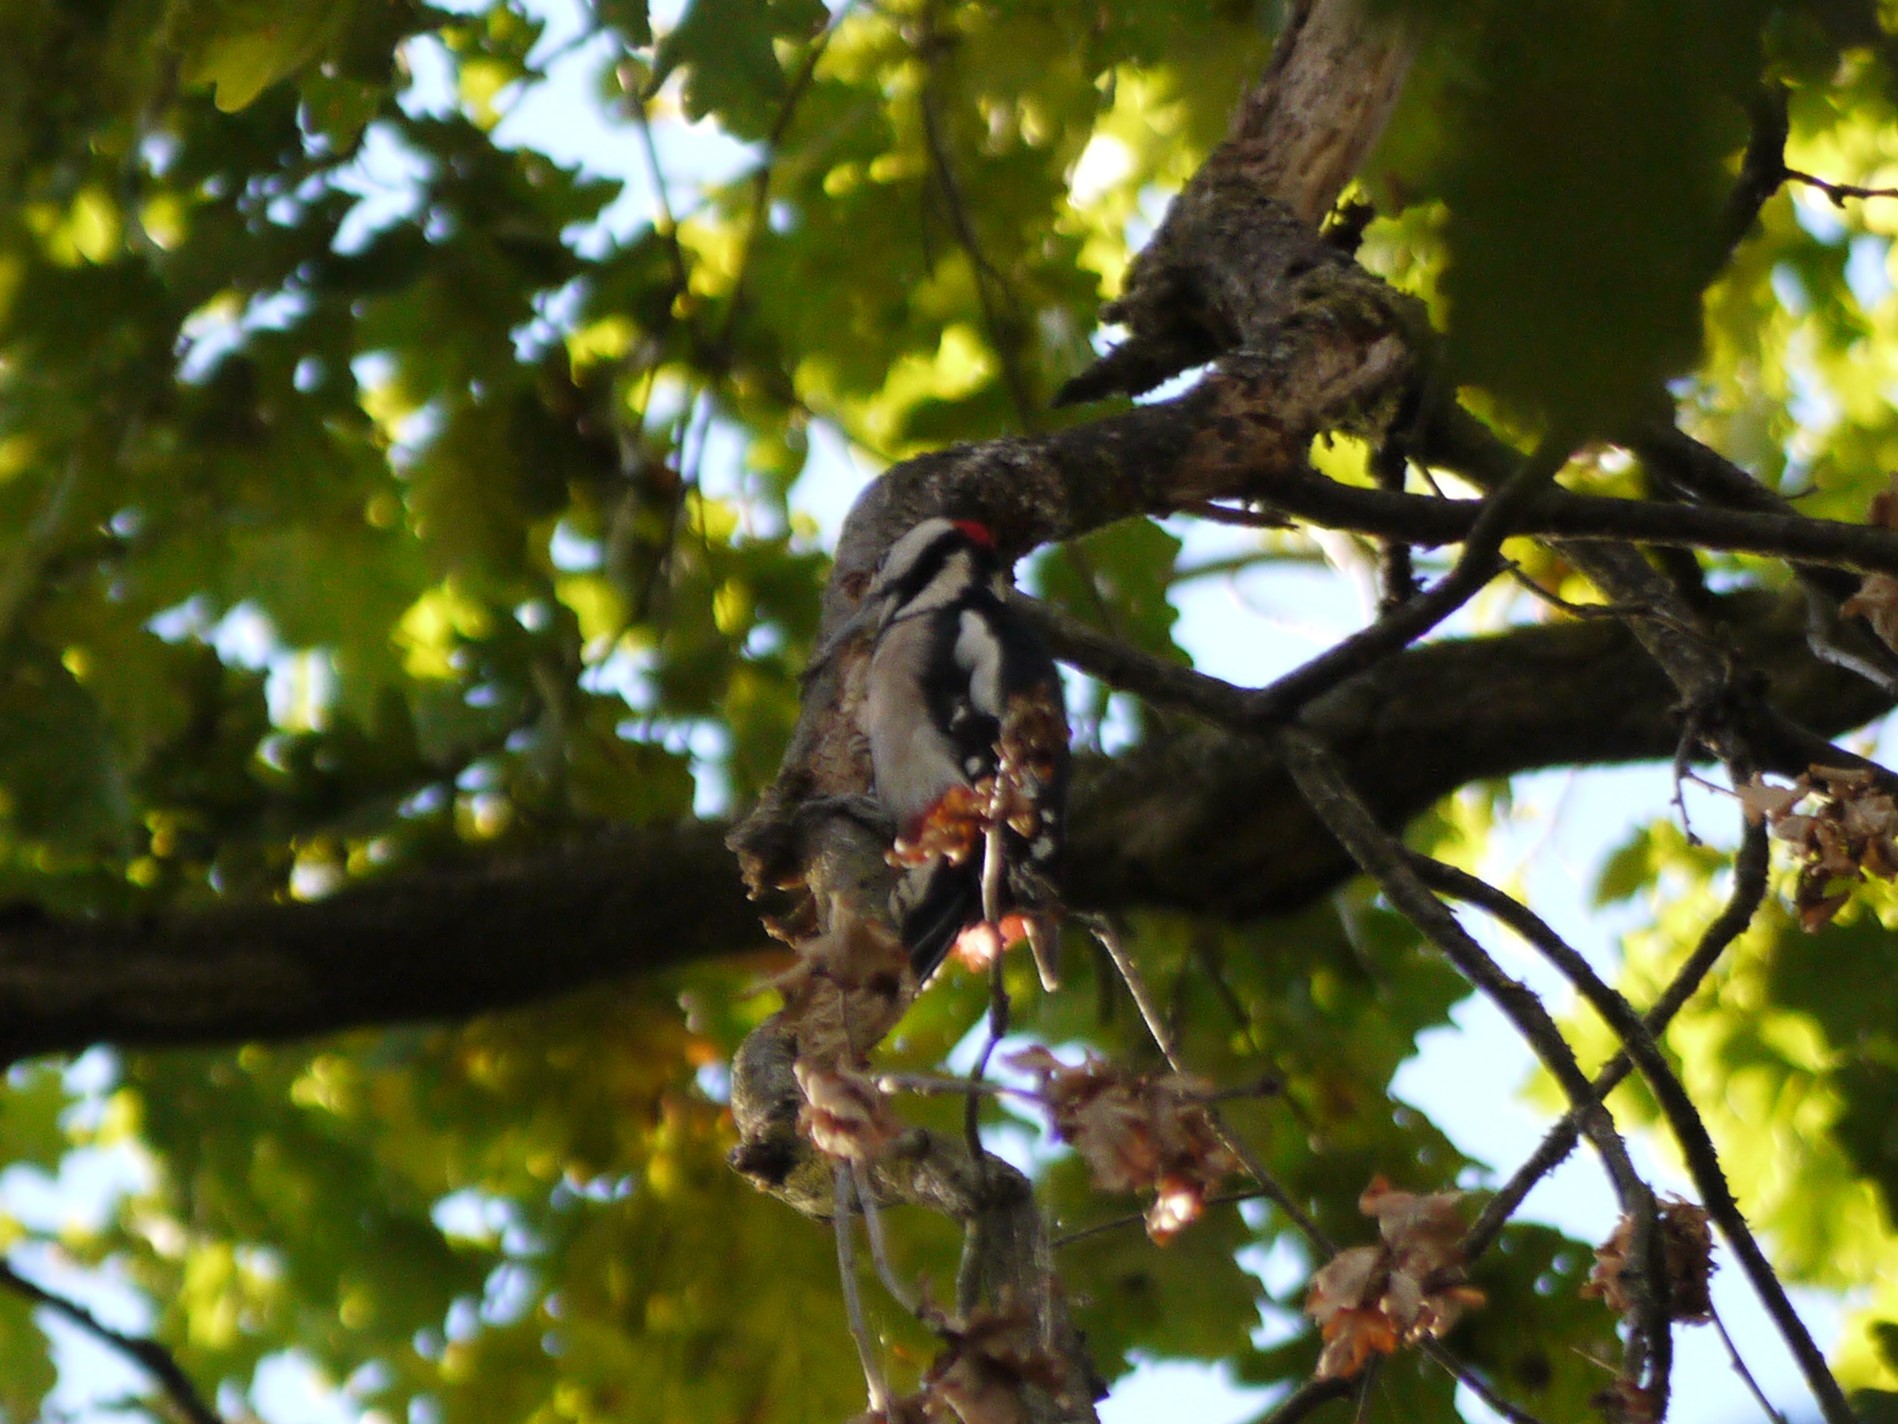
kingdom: Animalia
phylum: Chordata
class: Aves
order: Piciformes
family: Picidae
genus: Dendrocopos
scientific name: Dendrocopos major
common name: Great spotted woodpecker
